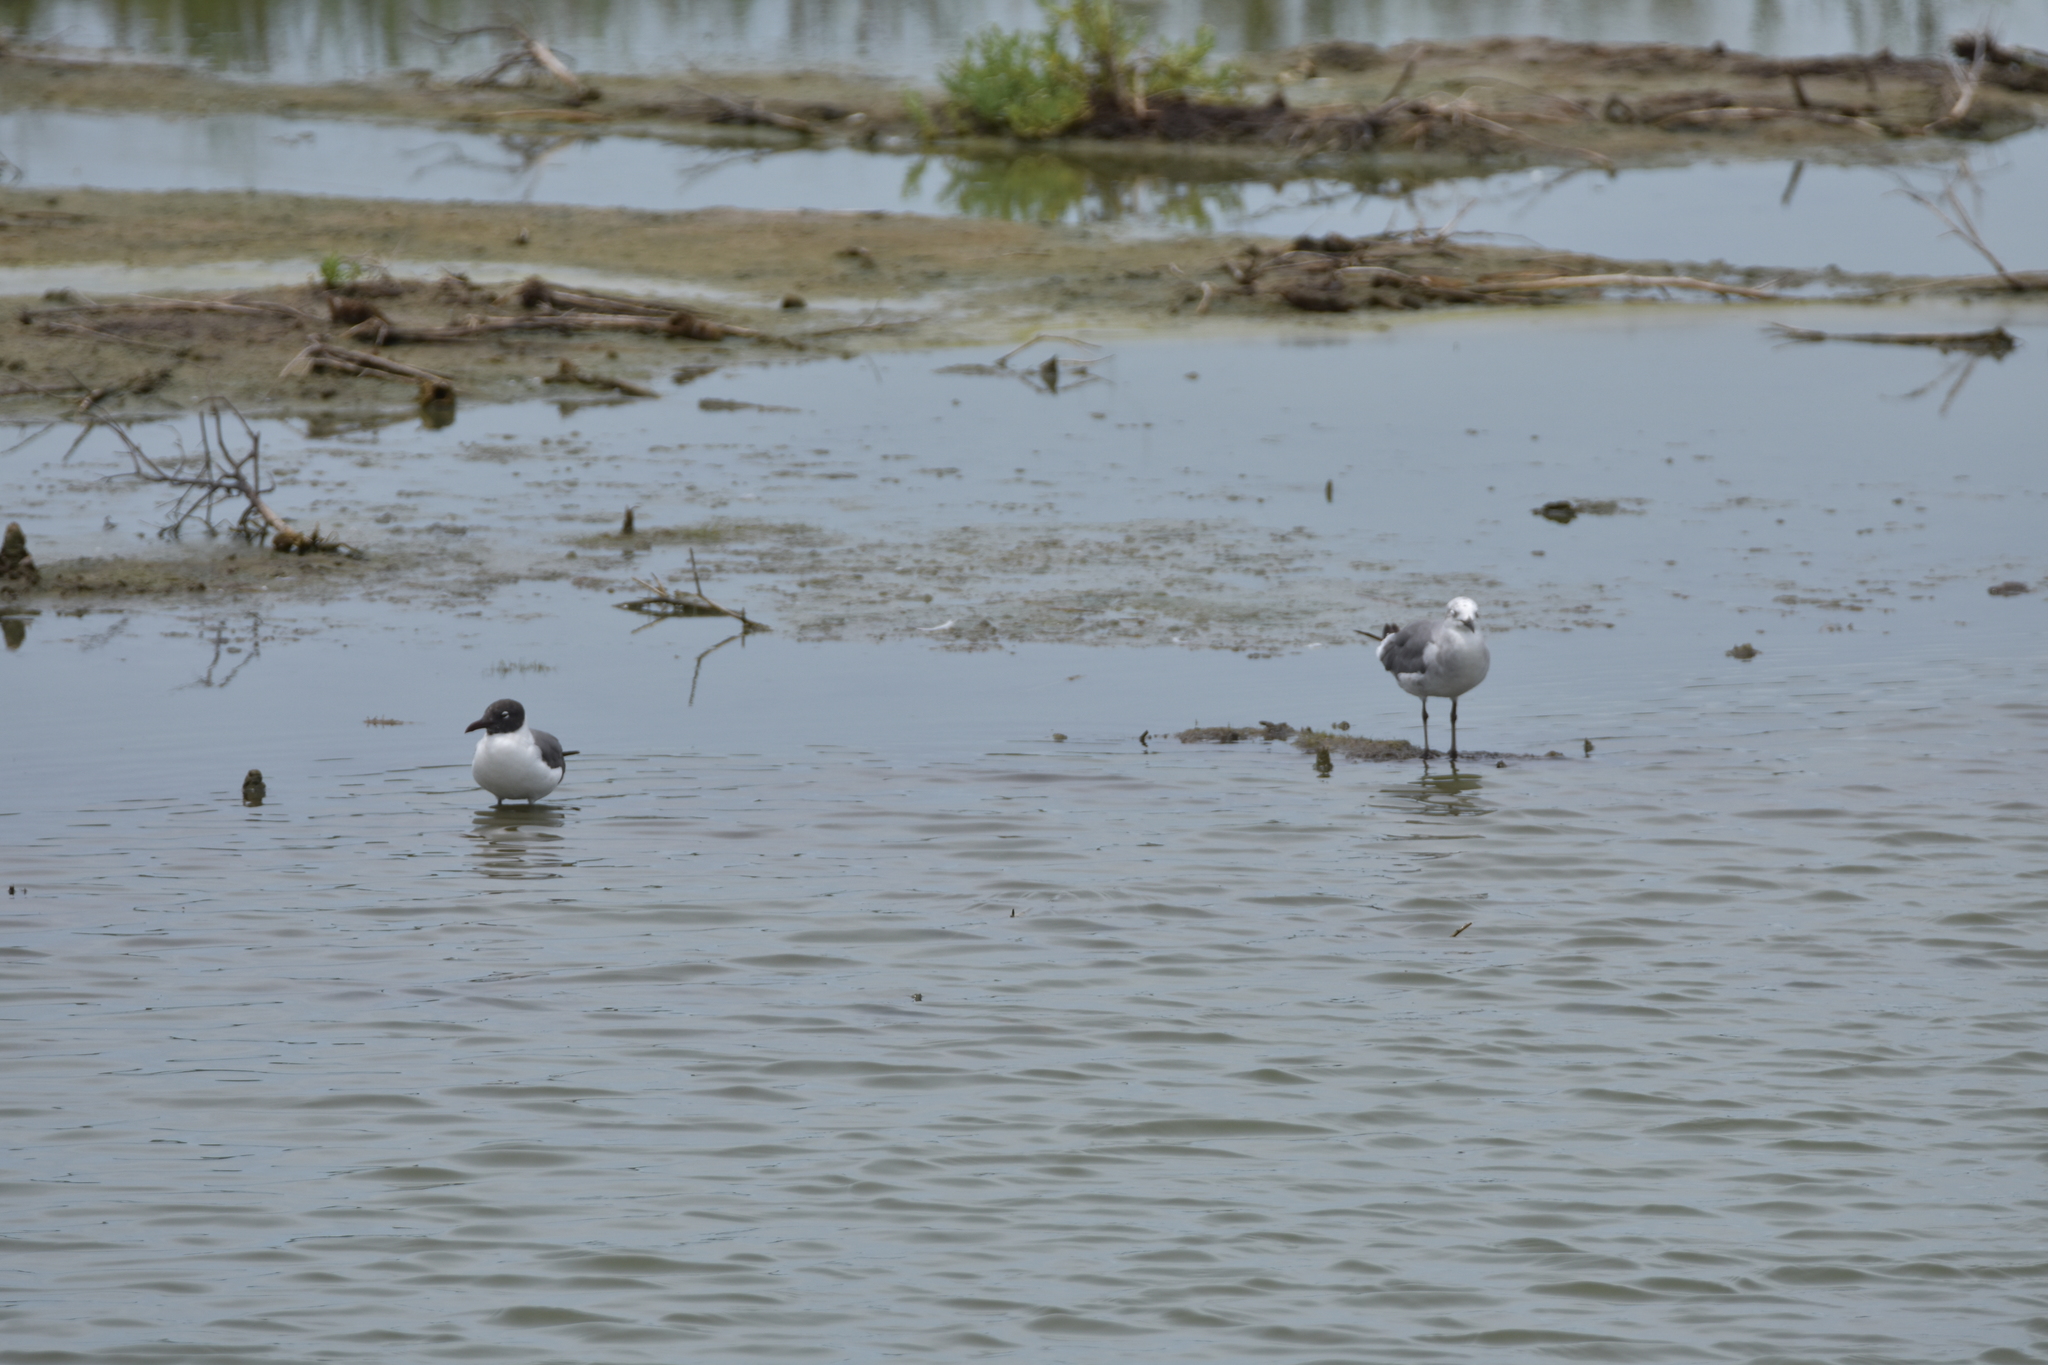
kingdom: Animalia
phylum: Chordata
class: Aves
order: Charadriiformes
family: Laridae
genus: Leucophaeus
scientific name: Leucophaeus atricilla
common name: Laughing gull
